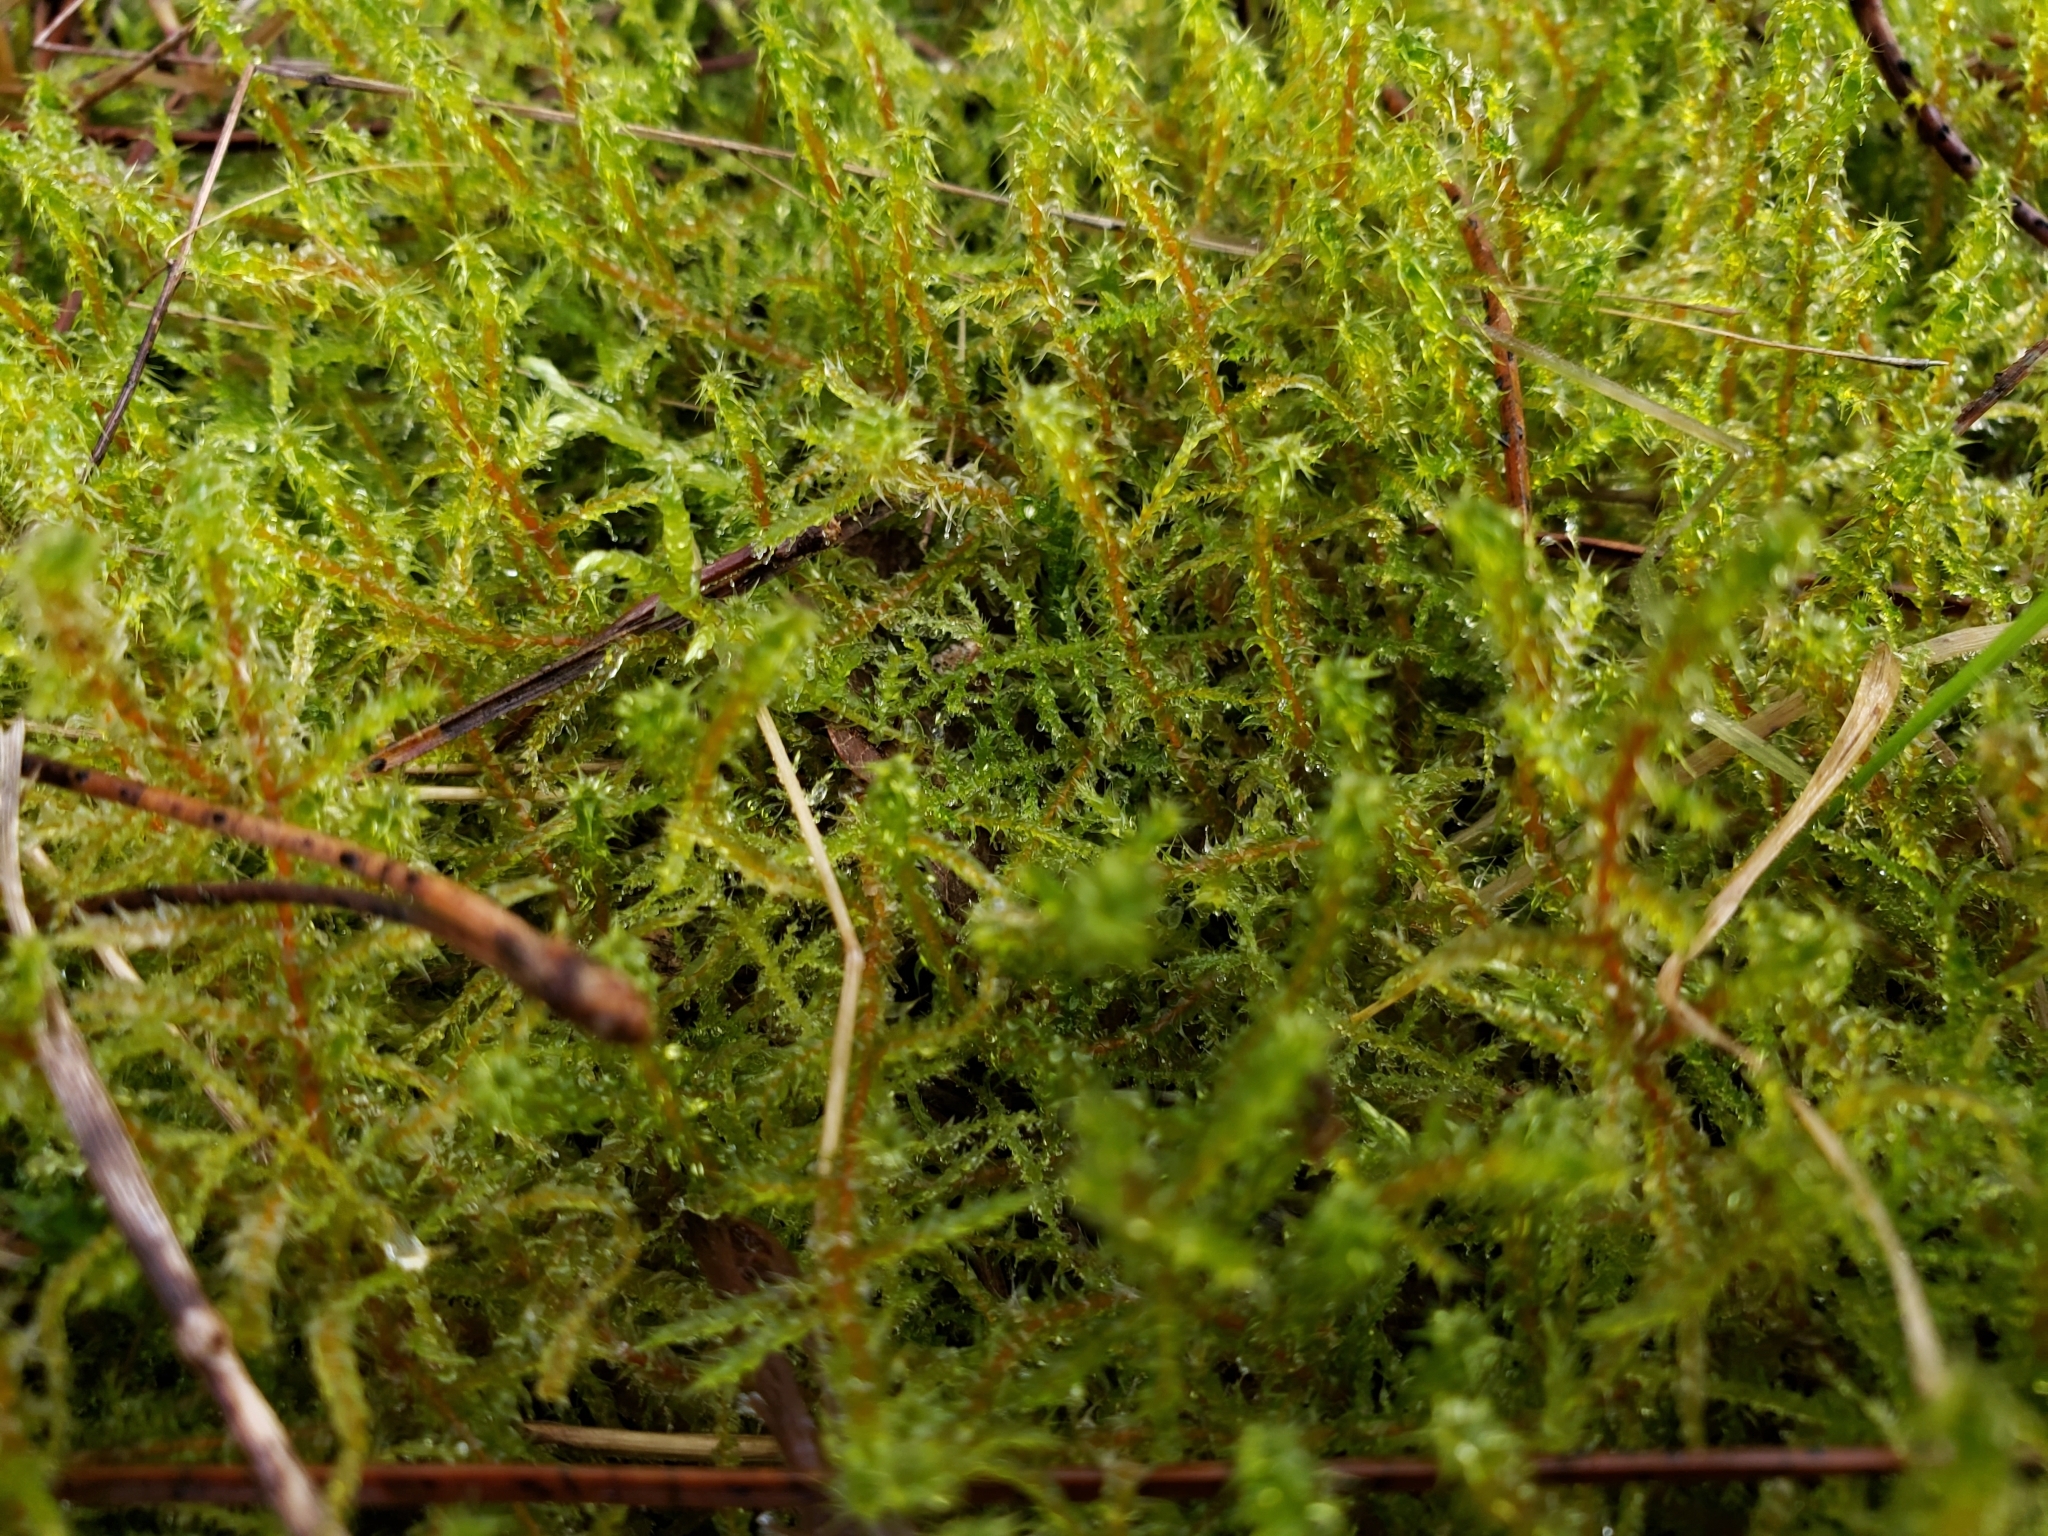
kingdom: Plantae
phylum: Bryophyta
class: Bryopsida
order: Hypnales
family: Hylocomiaceae
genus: Rhytidiadelphus
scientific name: Rhytidiadelphus squarrosus
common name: Springy turf-moss
